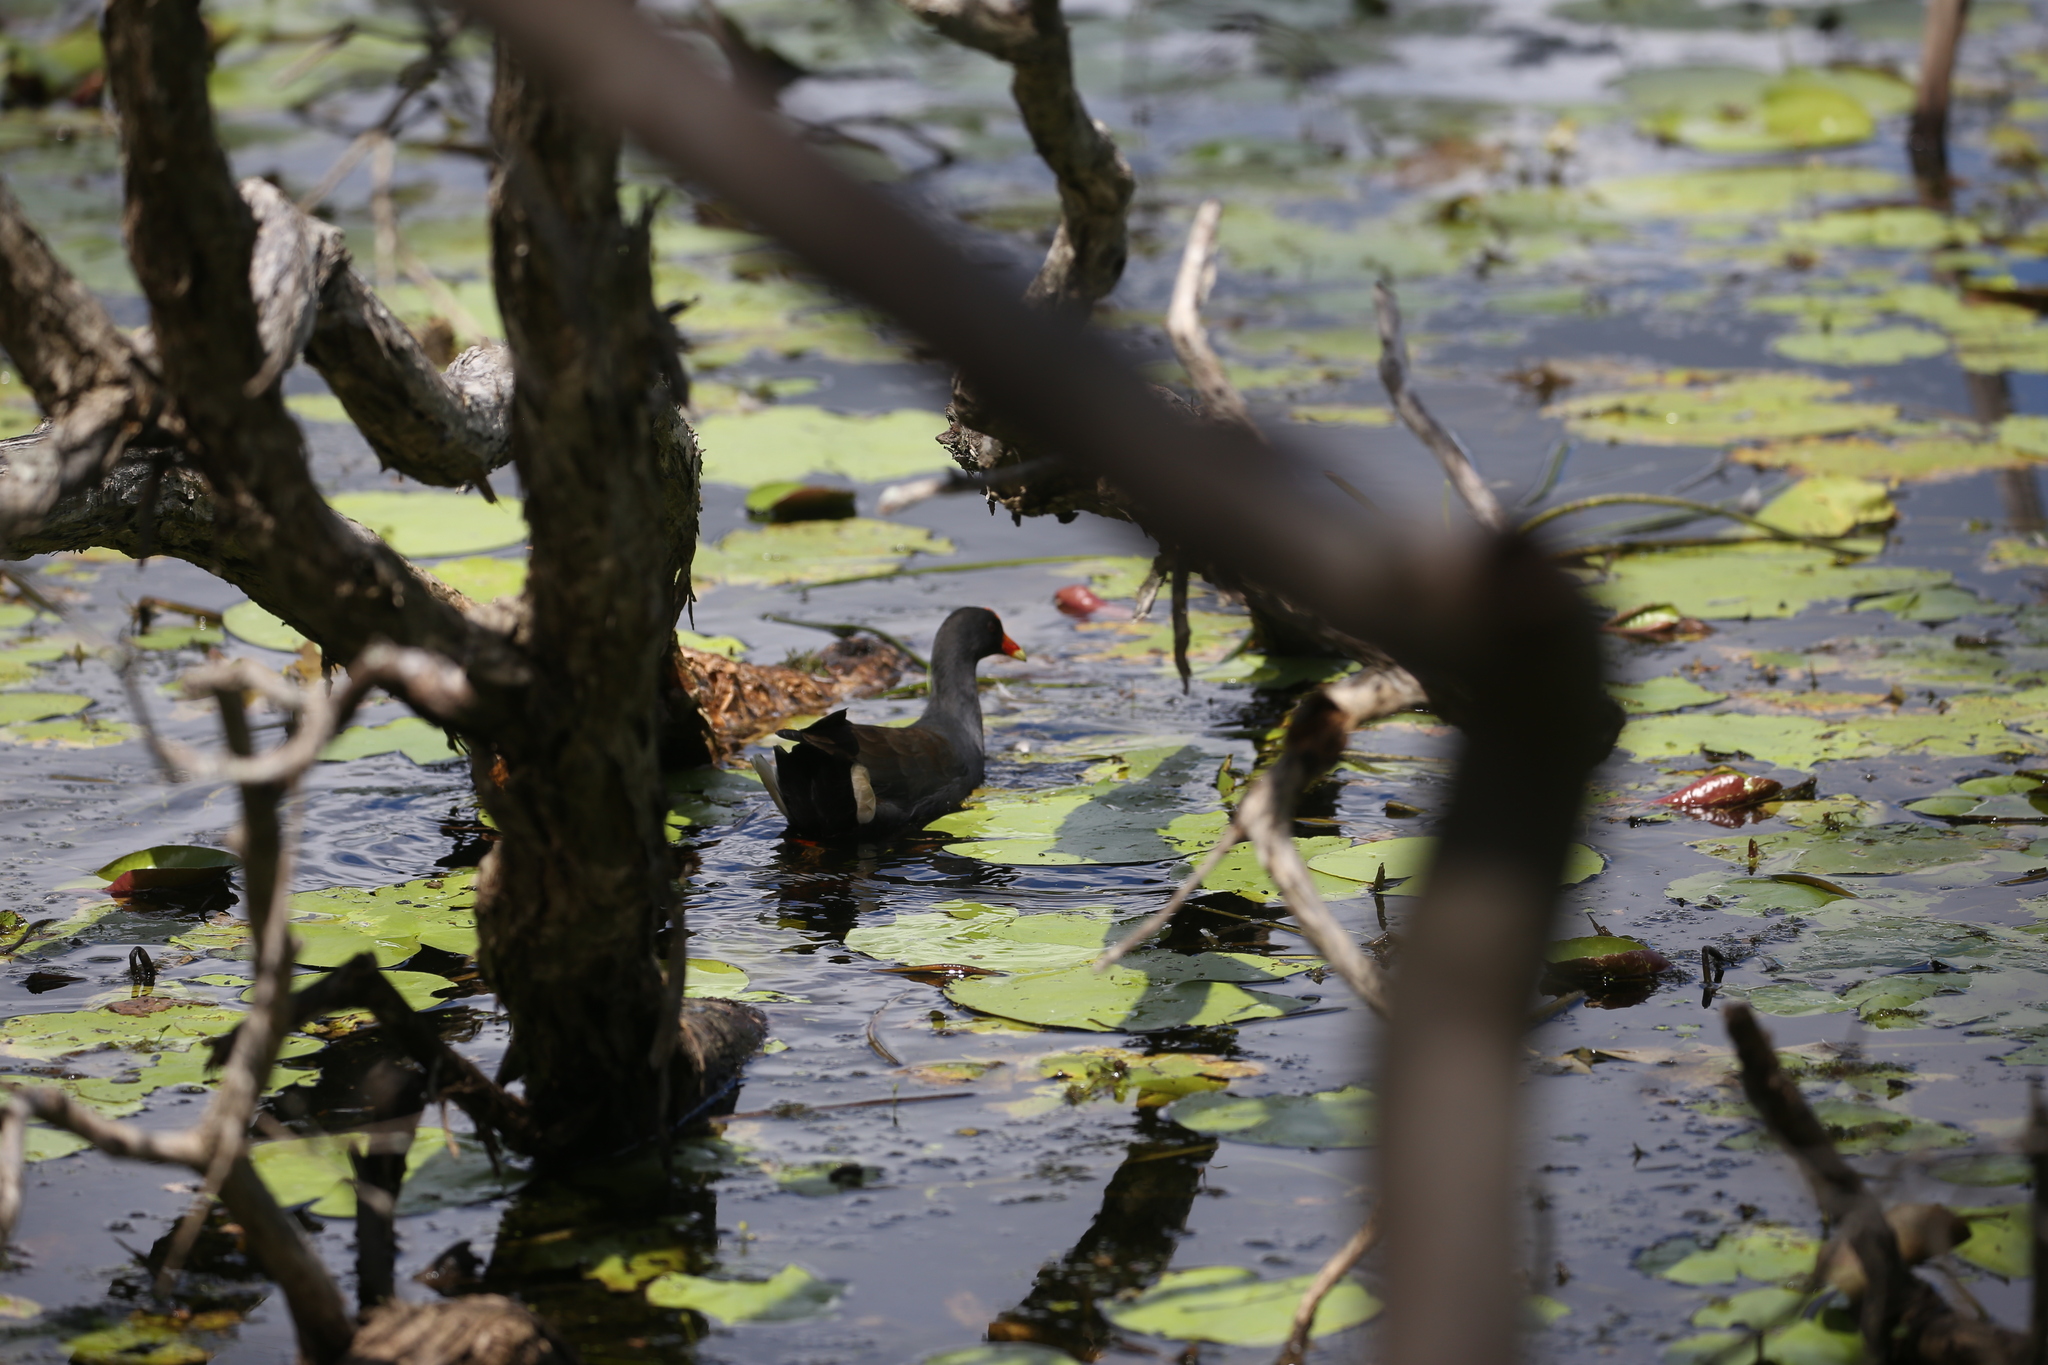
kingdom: Animalia
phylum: Chordata
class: Aves
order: Gruiformes
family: Rallidae
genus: Gallinula
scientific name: Gallinula tenebrosa
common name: Dusky moorhen
